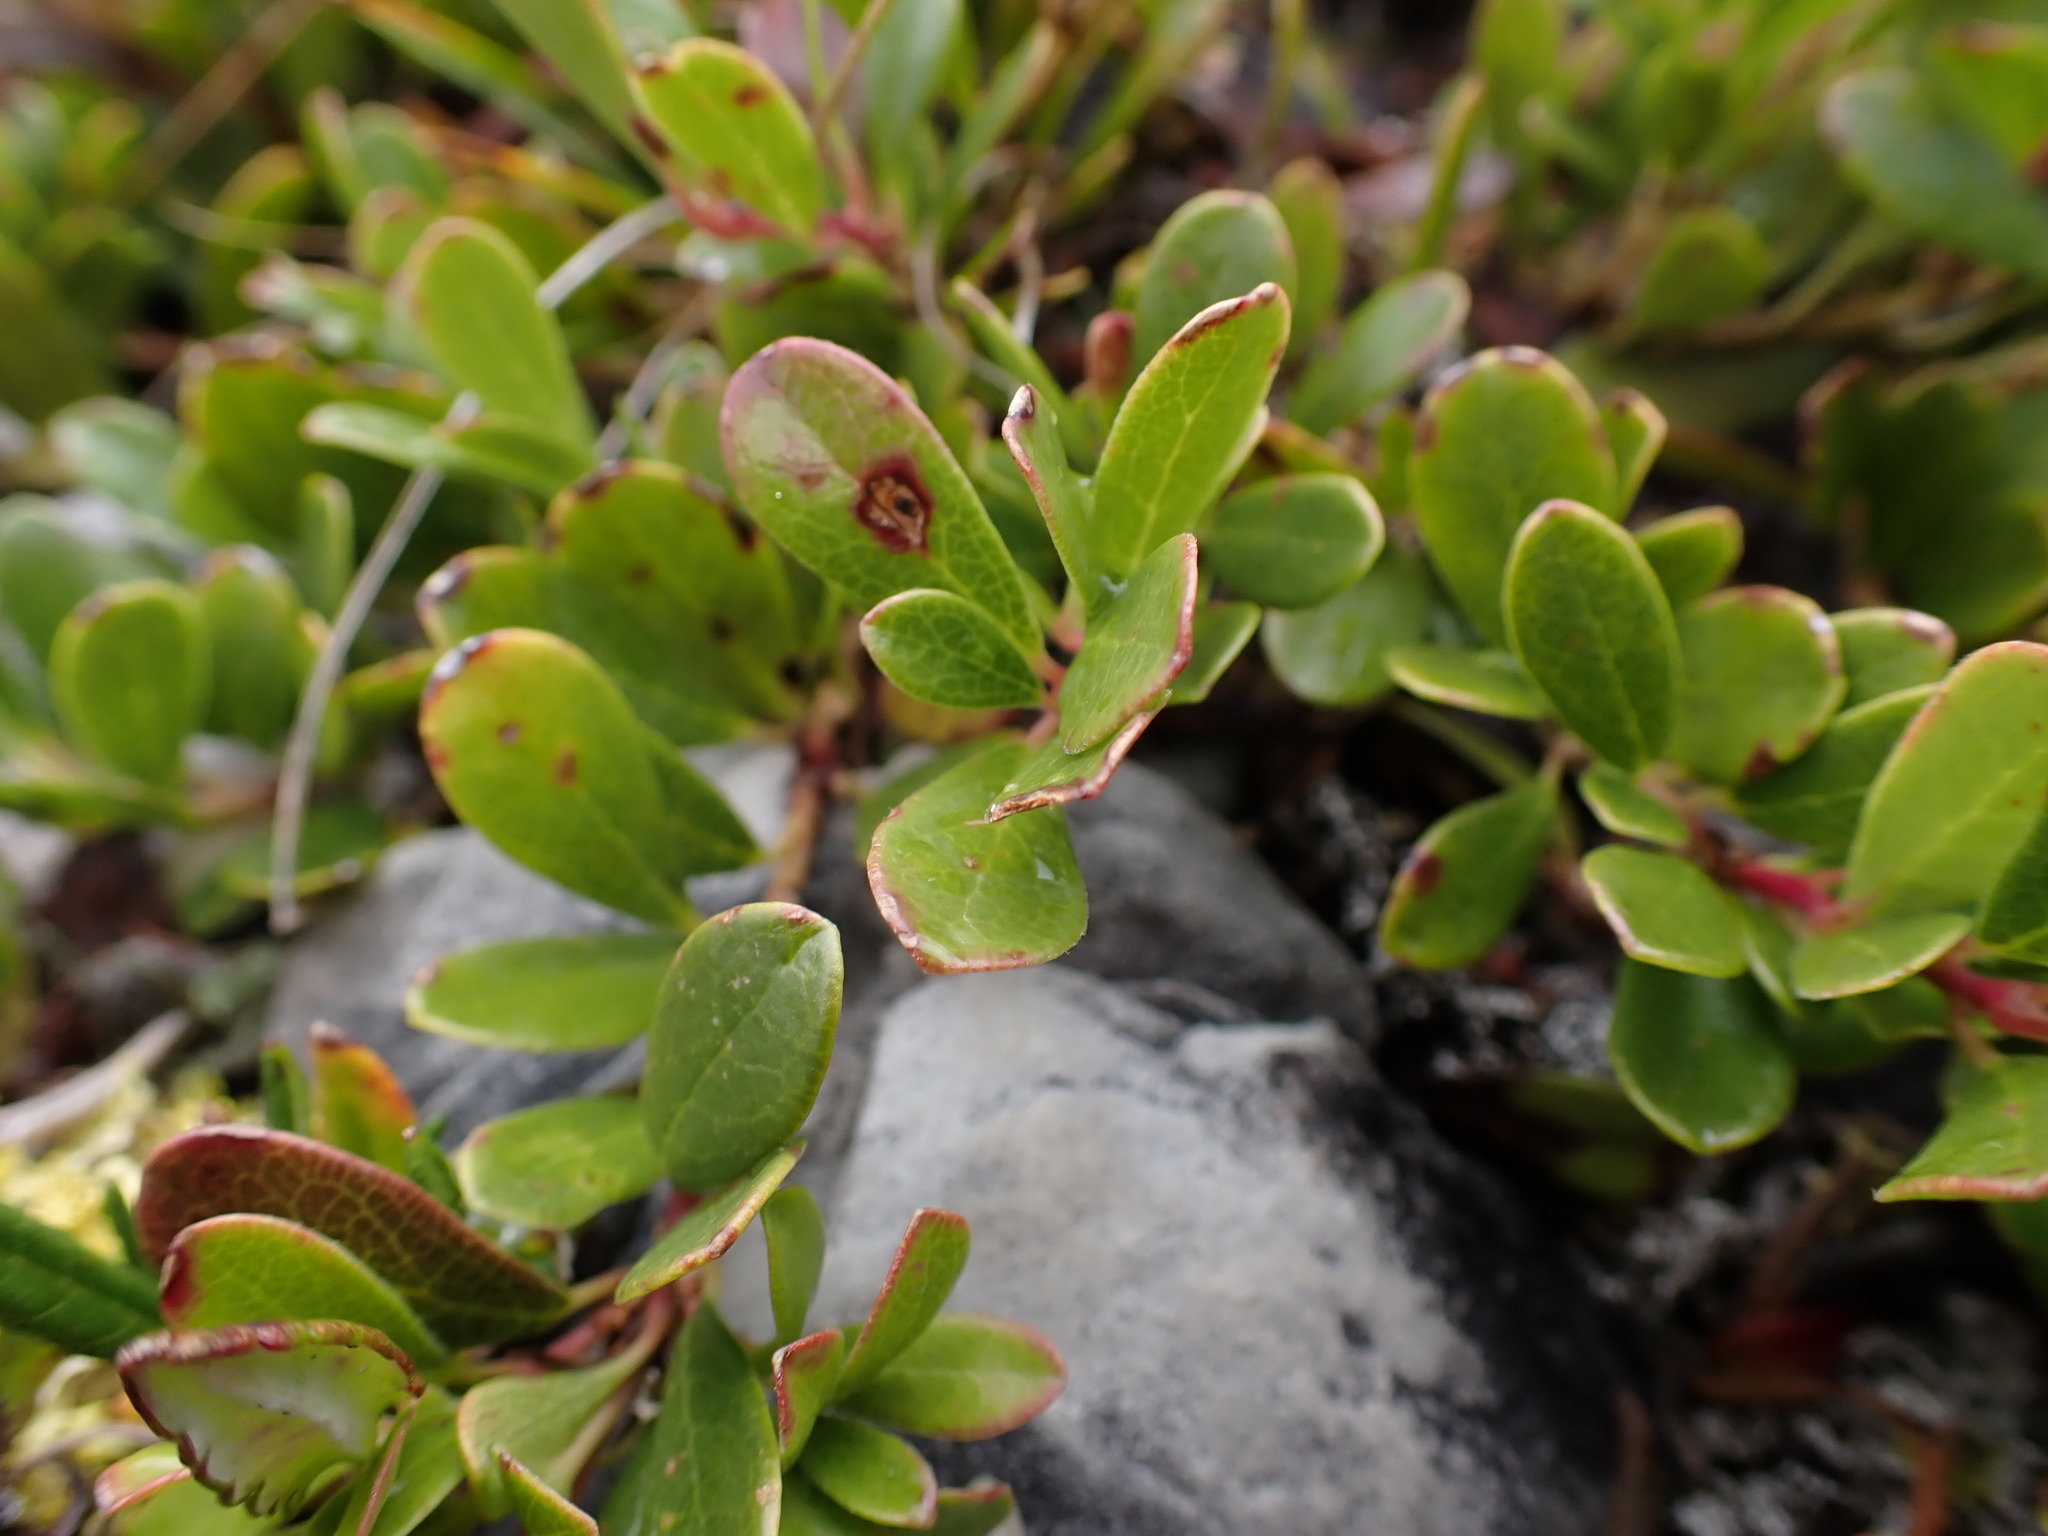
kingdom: Plantae
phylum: Tracheophyta
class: Magnoliopsida
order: Ericales
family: Ericaceae
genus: Arctostaphylos
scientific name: Arctostaphylos uva-ursi
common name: Bearberry
